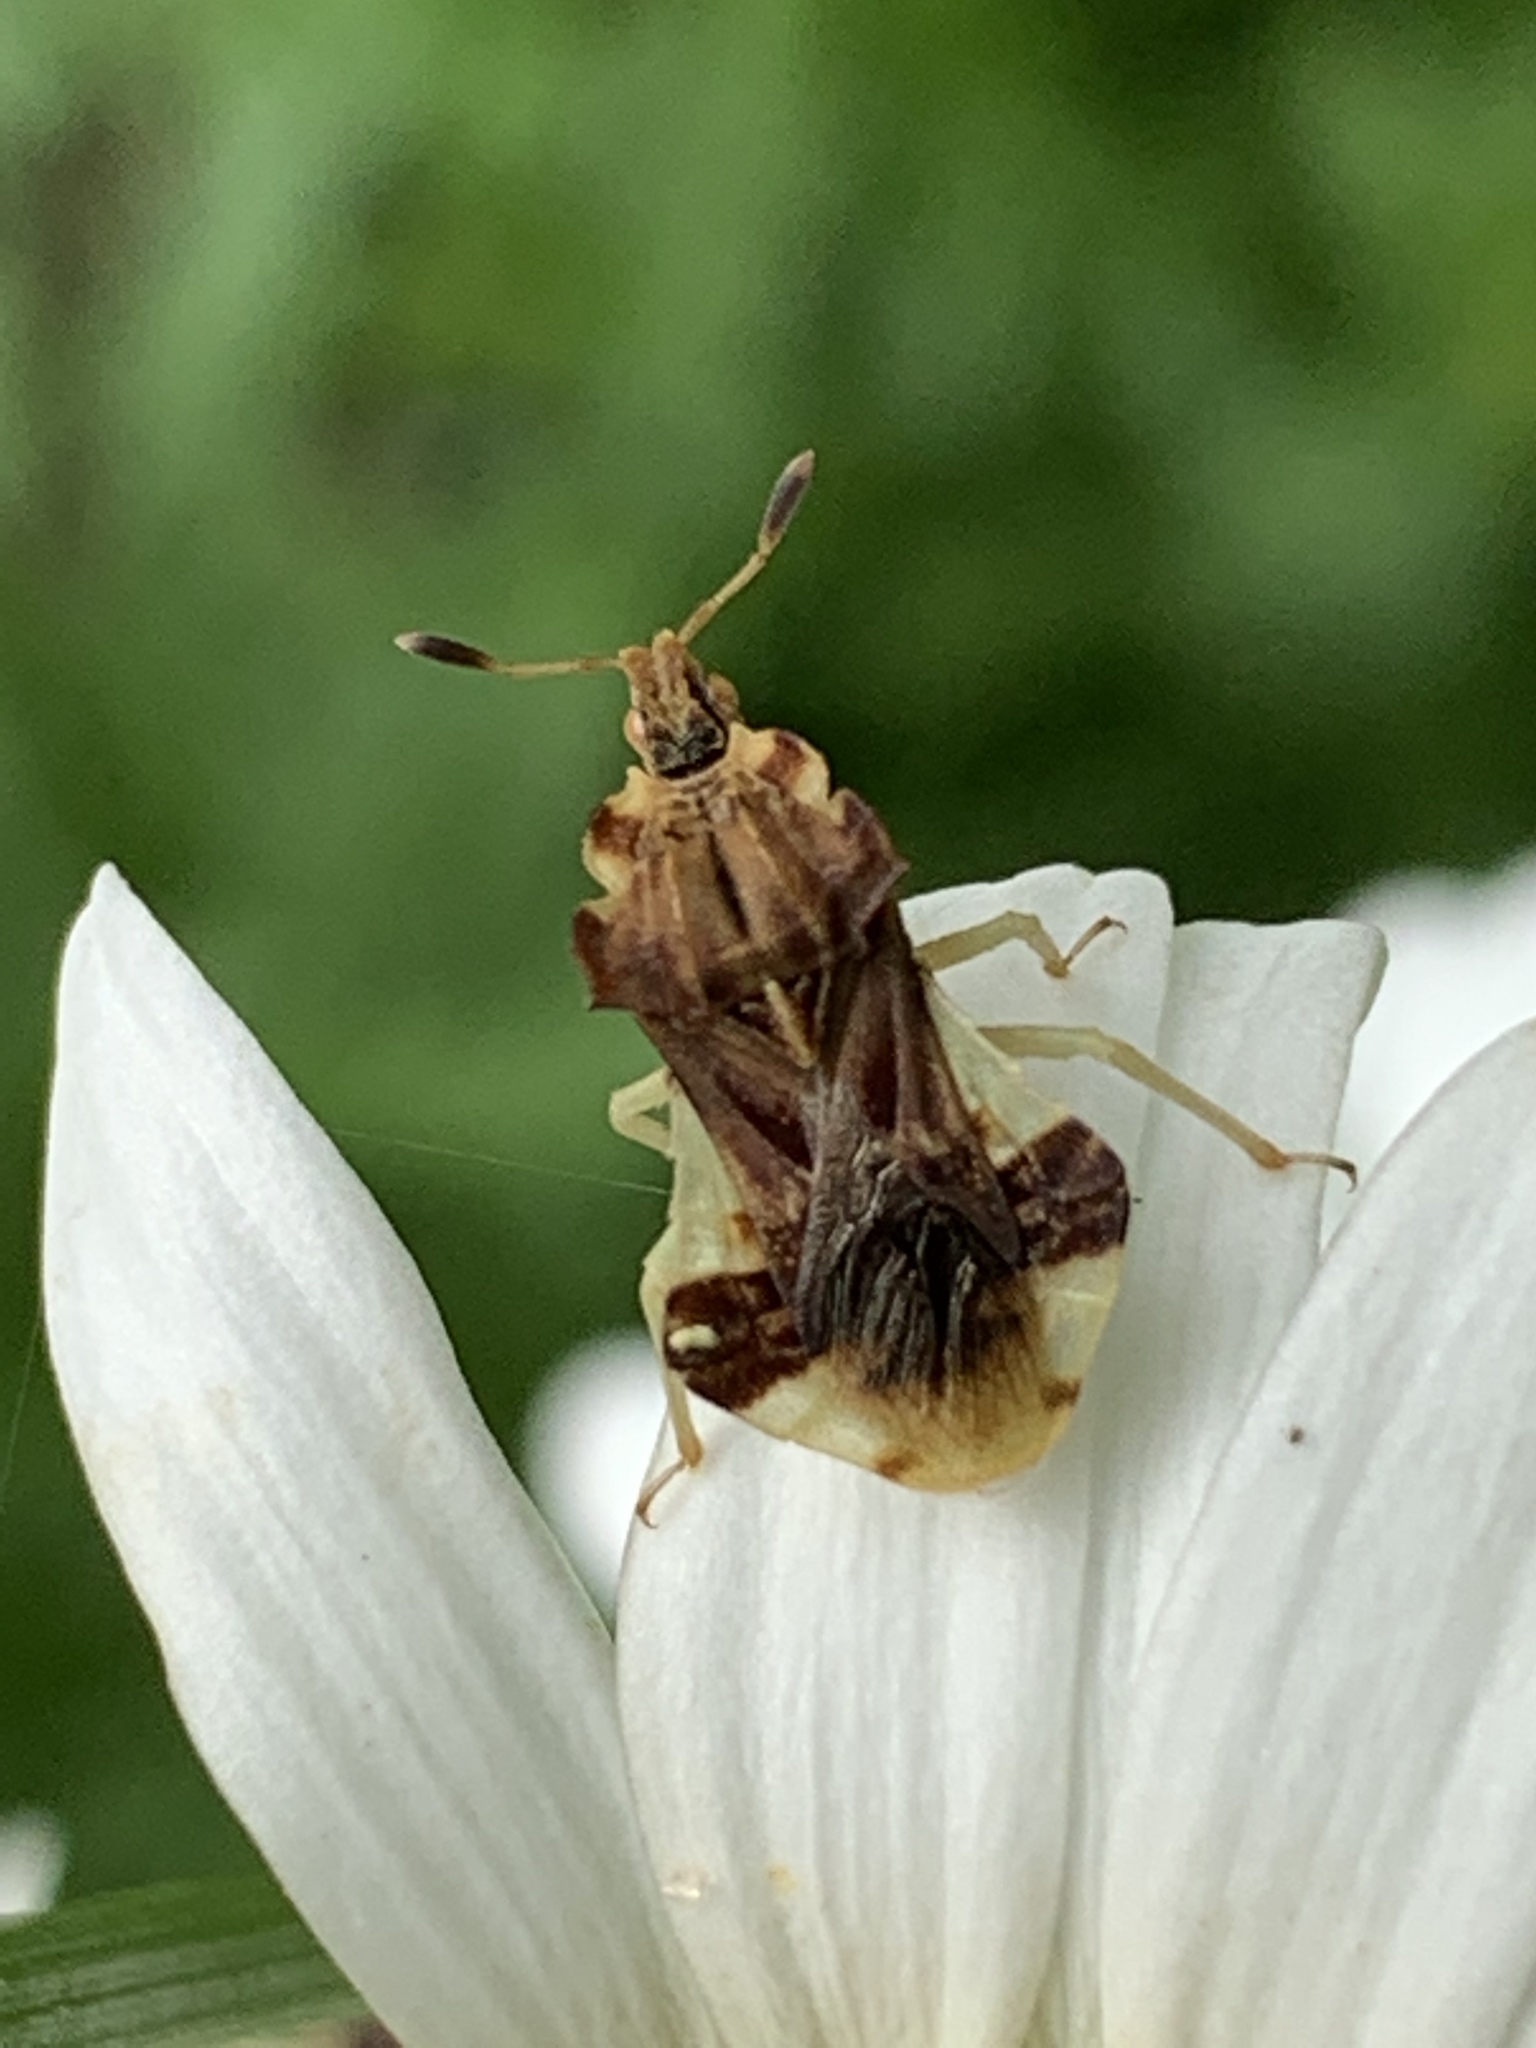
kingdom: Animalia
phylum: Arthropoda
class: Insecta
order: Hemiptera
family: Reduviidae
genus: Phymata
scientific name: Phymata fasciata
